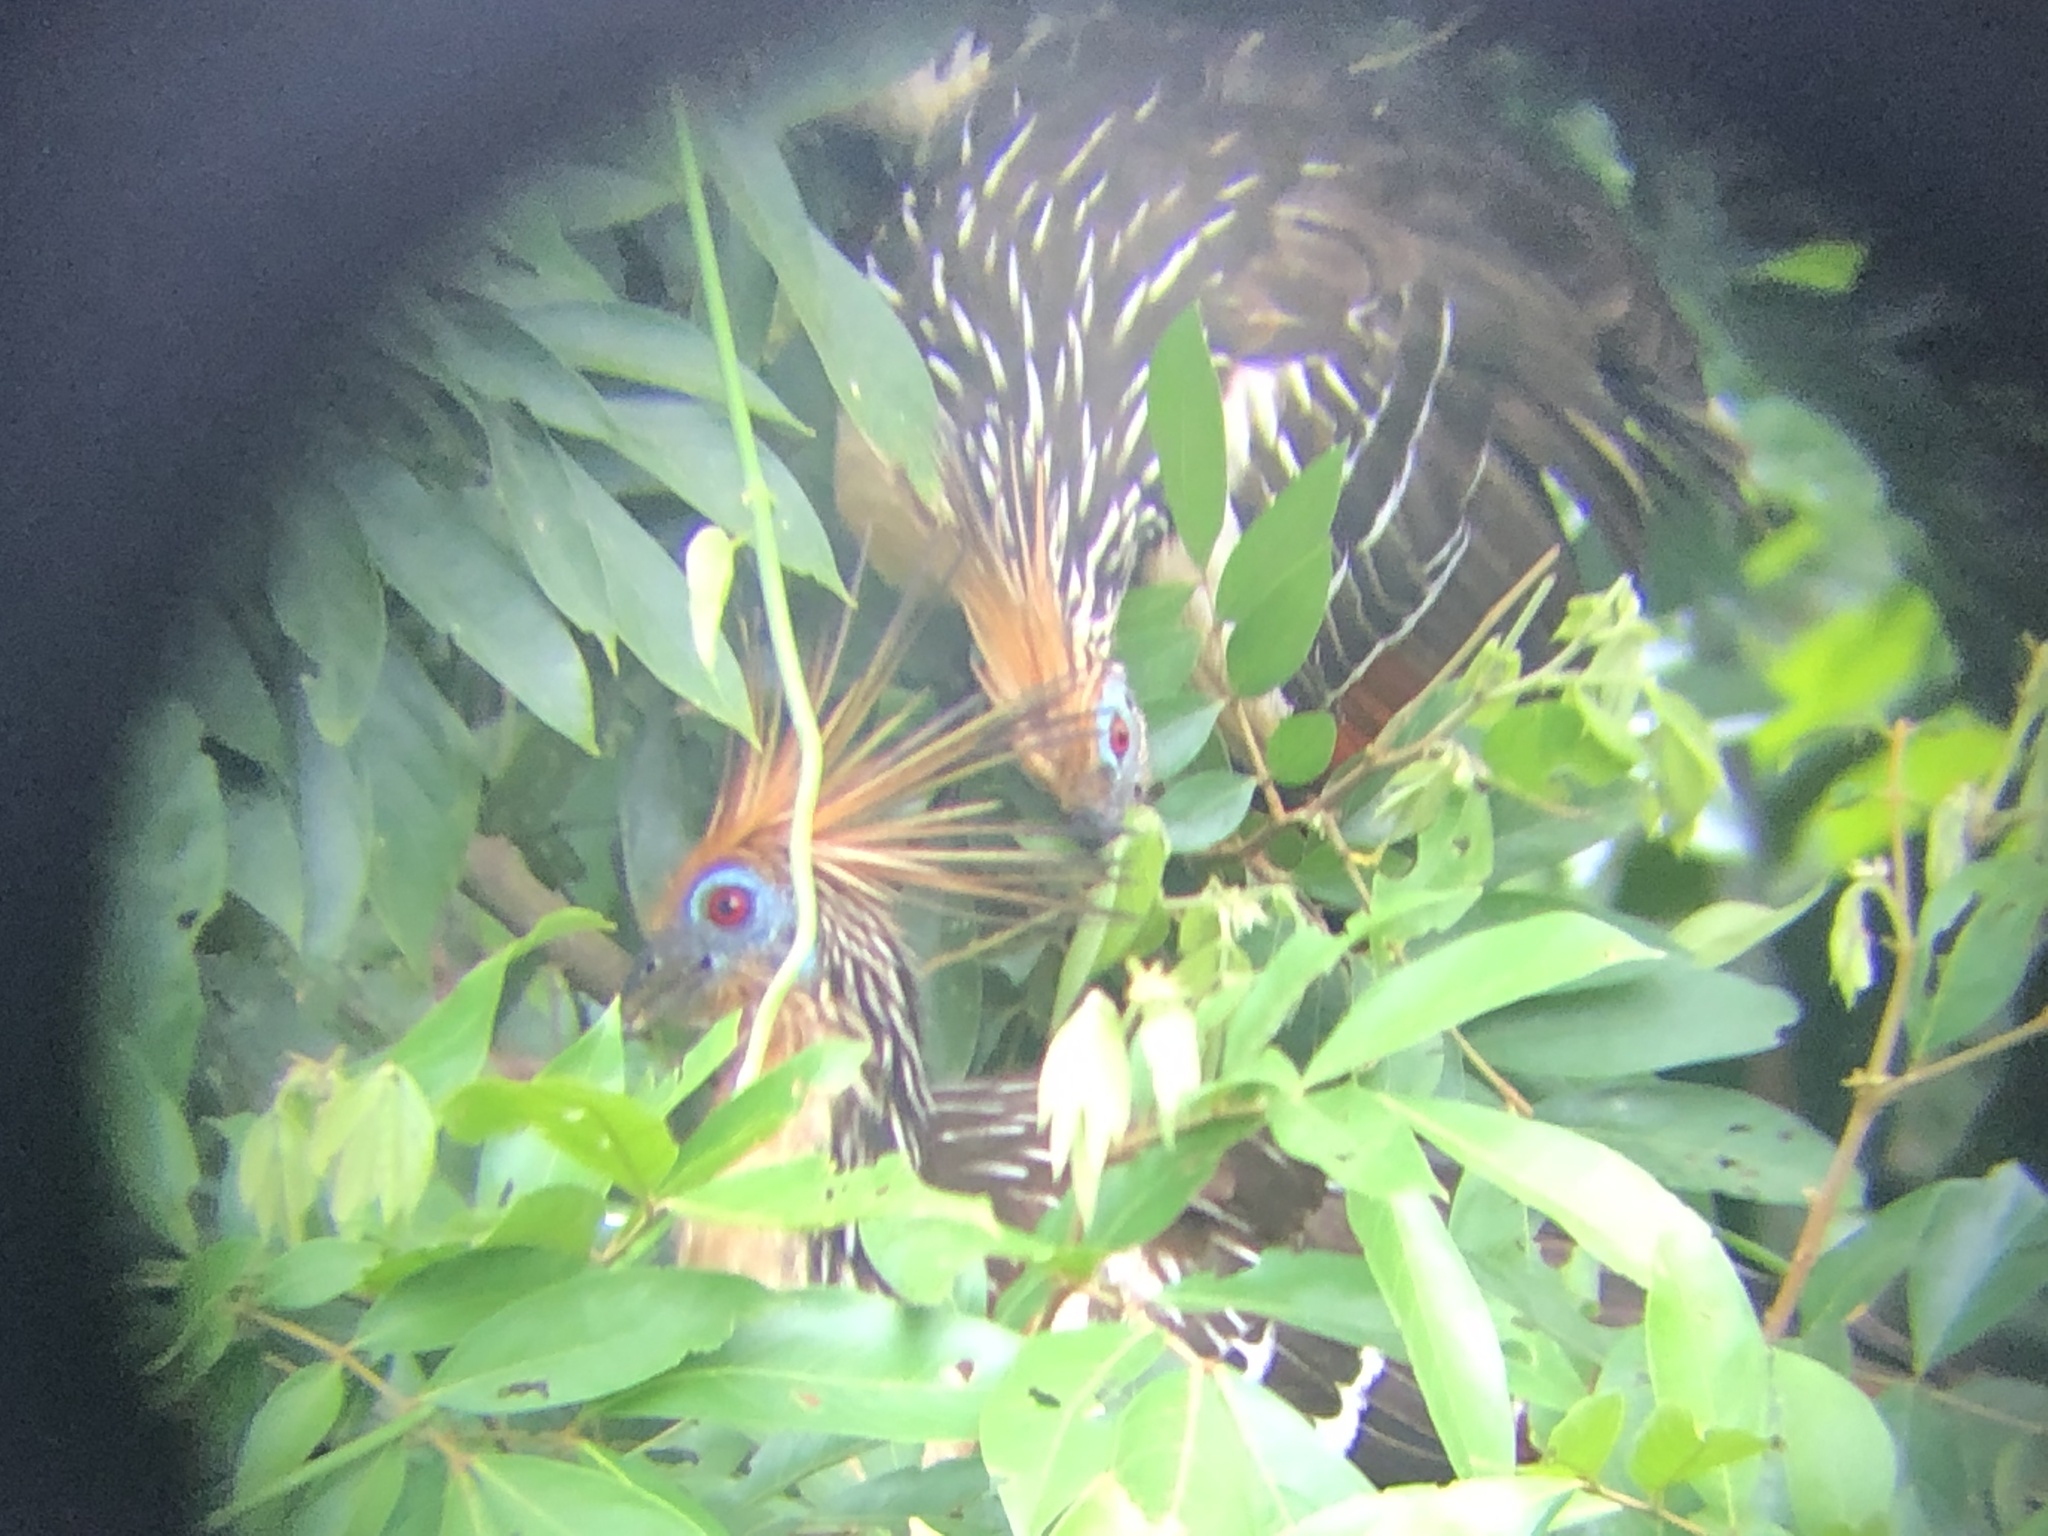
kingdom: Animalia
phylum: Chordata
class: Aves
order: Opisthocomiformes
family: Opisthocomidae
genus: Opisthocomus
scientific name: Opisthocomus hoazin
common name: Hoatzin
